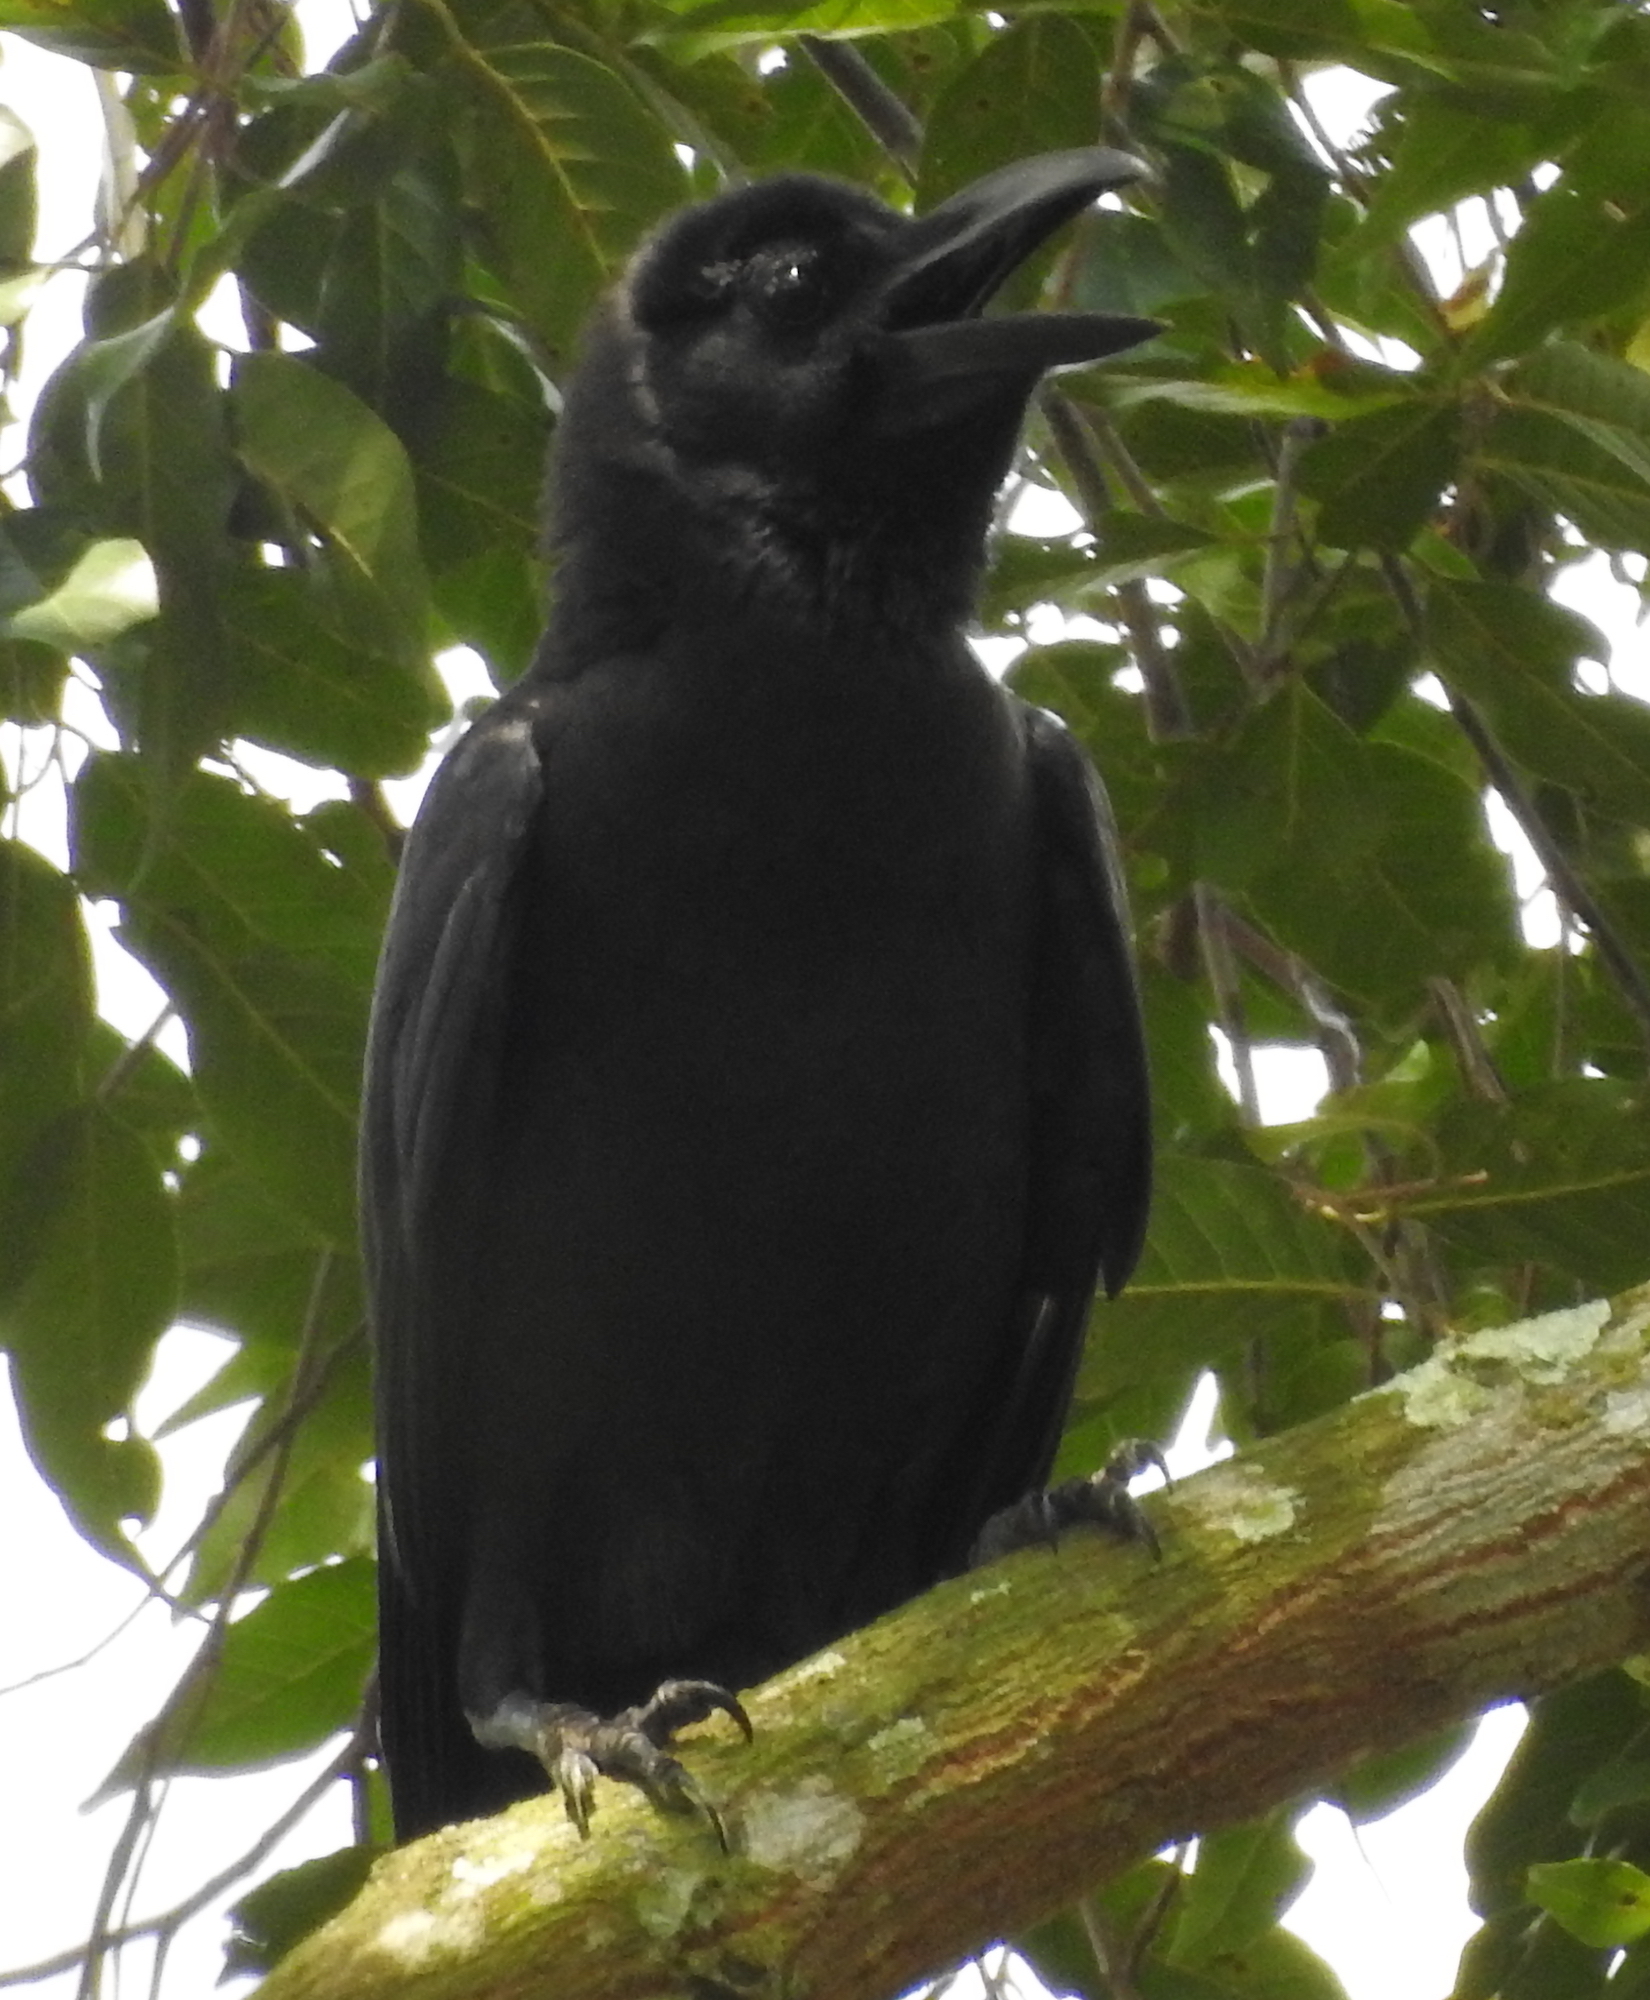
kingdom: Animalia
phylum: Chordata
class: Aves
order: Passeriformes
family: Corvidae
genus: Corvus
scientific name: Corvus macrorhynchos
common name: Large-billed crow
